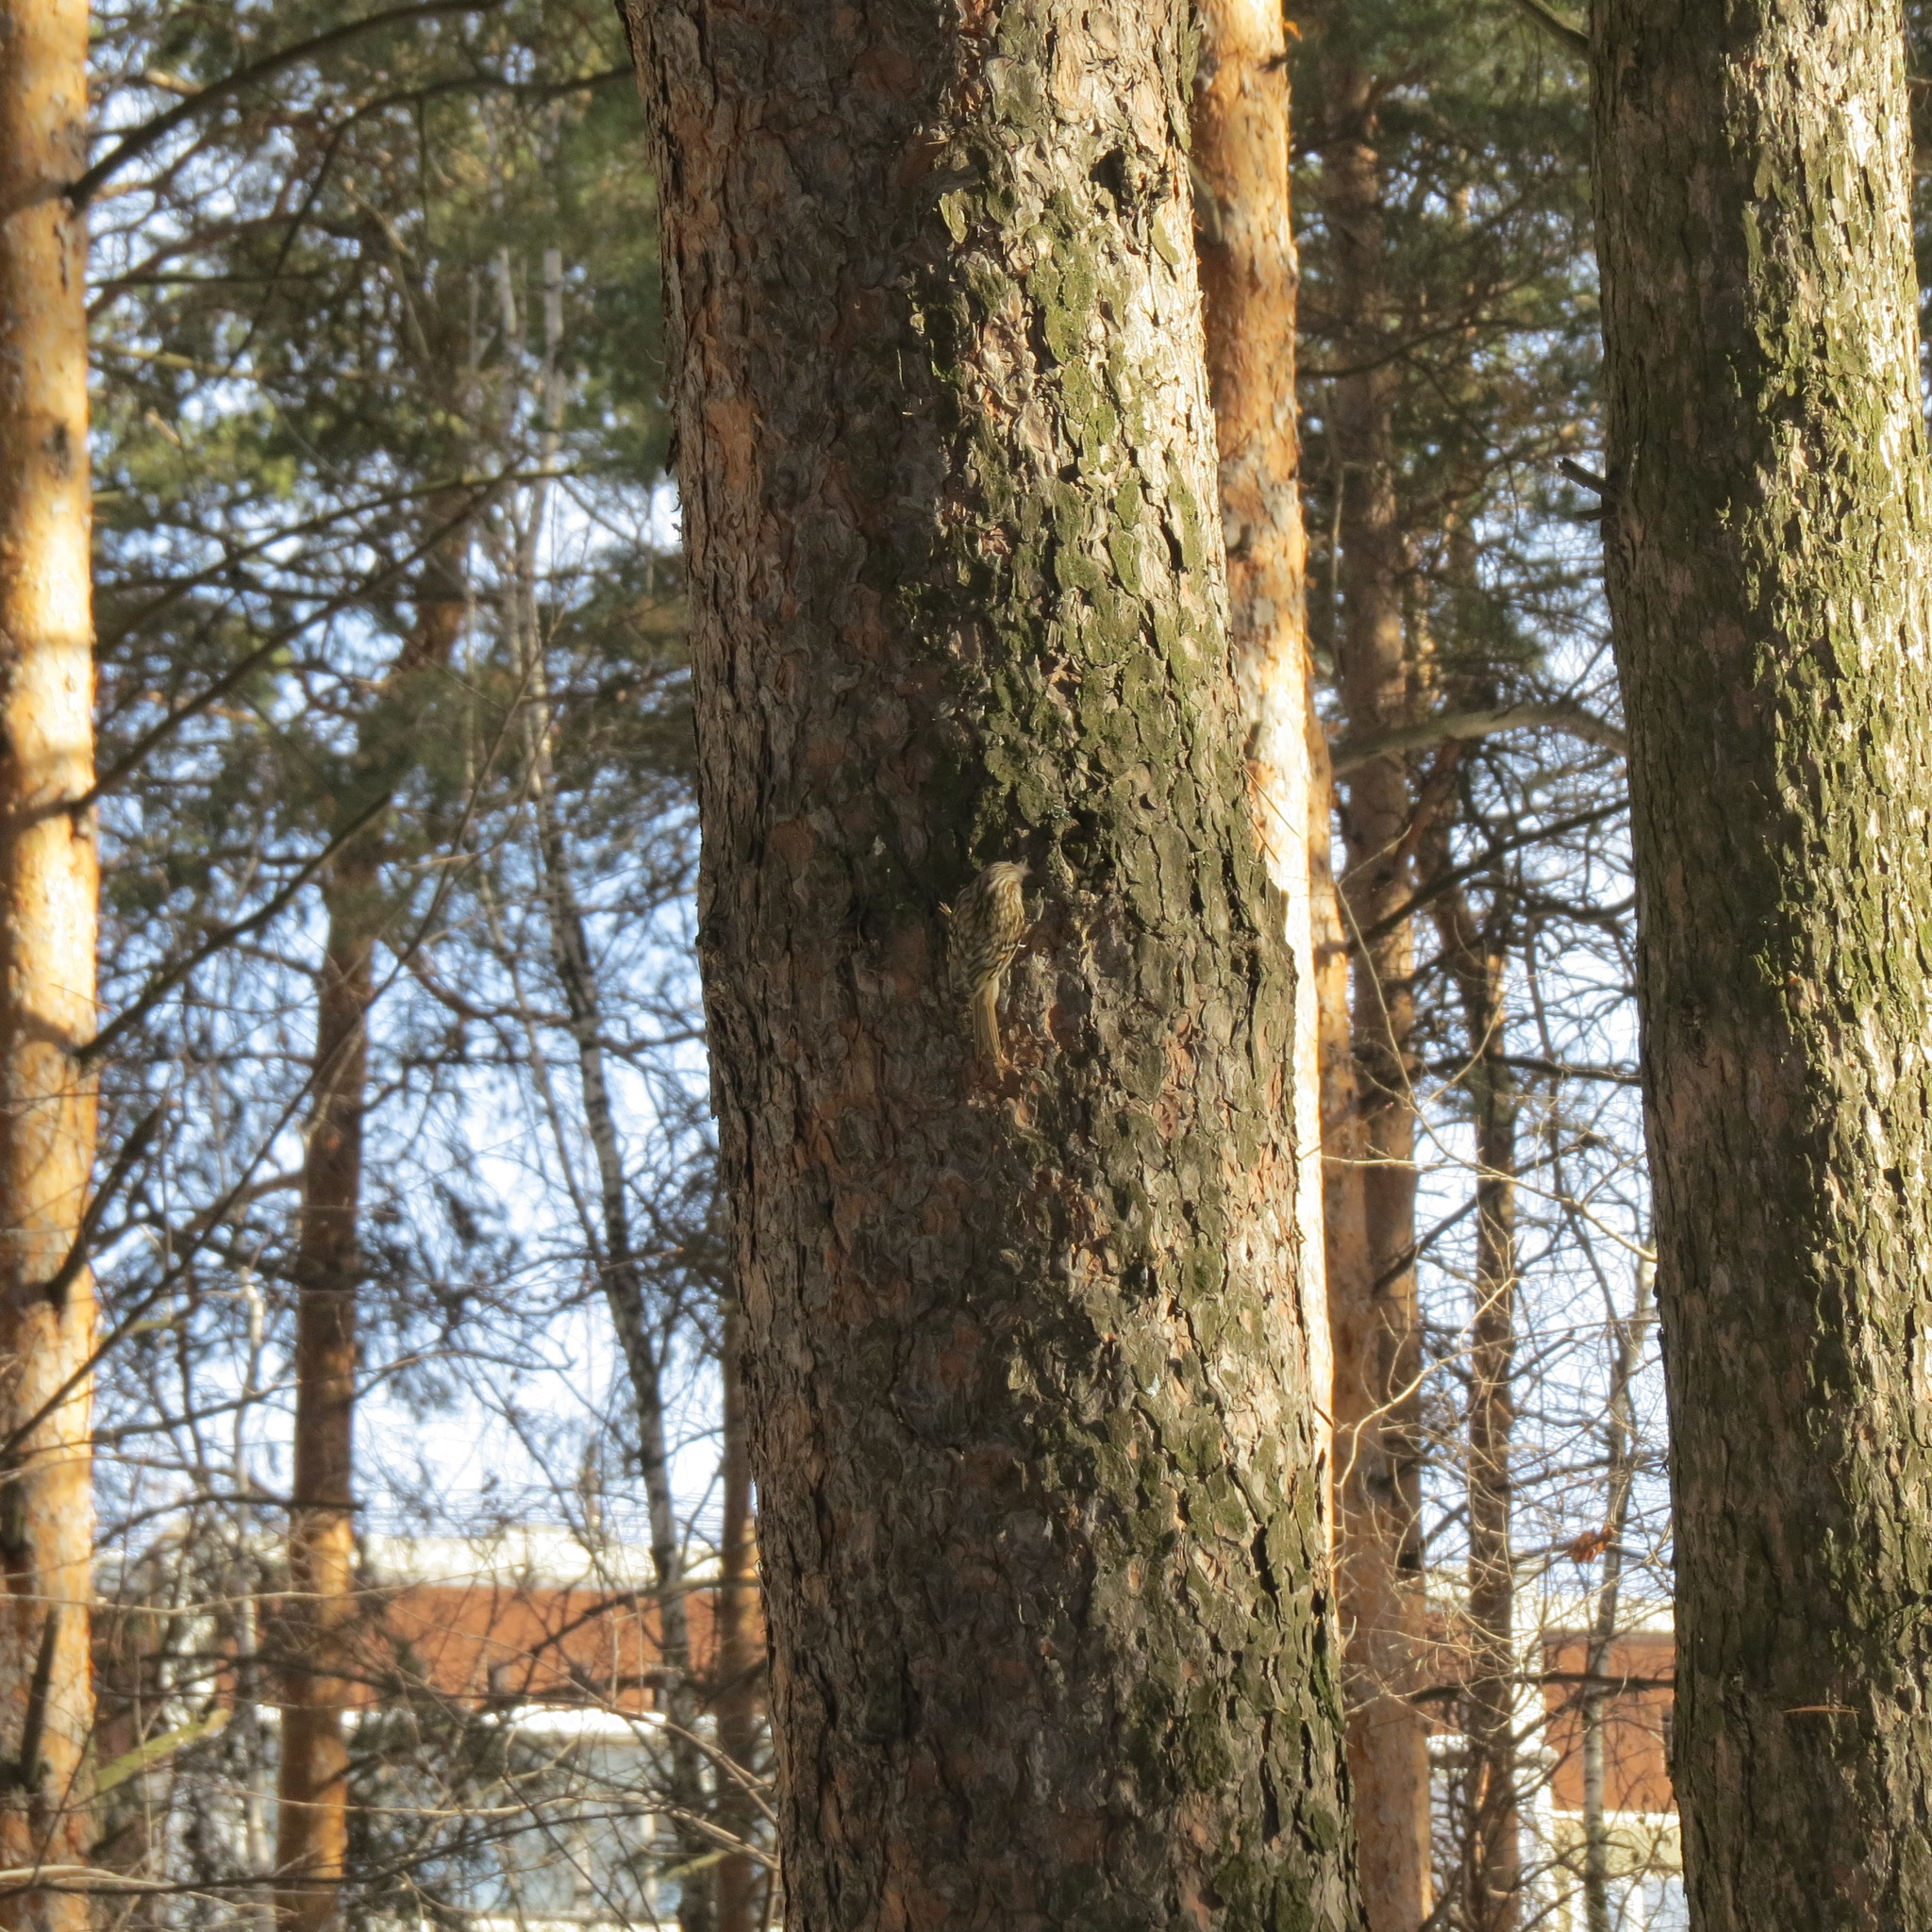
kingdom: Animalia
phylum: Chordata
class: Aves
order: Passeriformes
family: Certhiidae
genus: Certhia
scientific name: Certhia familiaris
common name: Eurasian treecreeper
